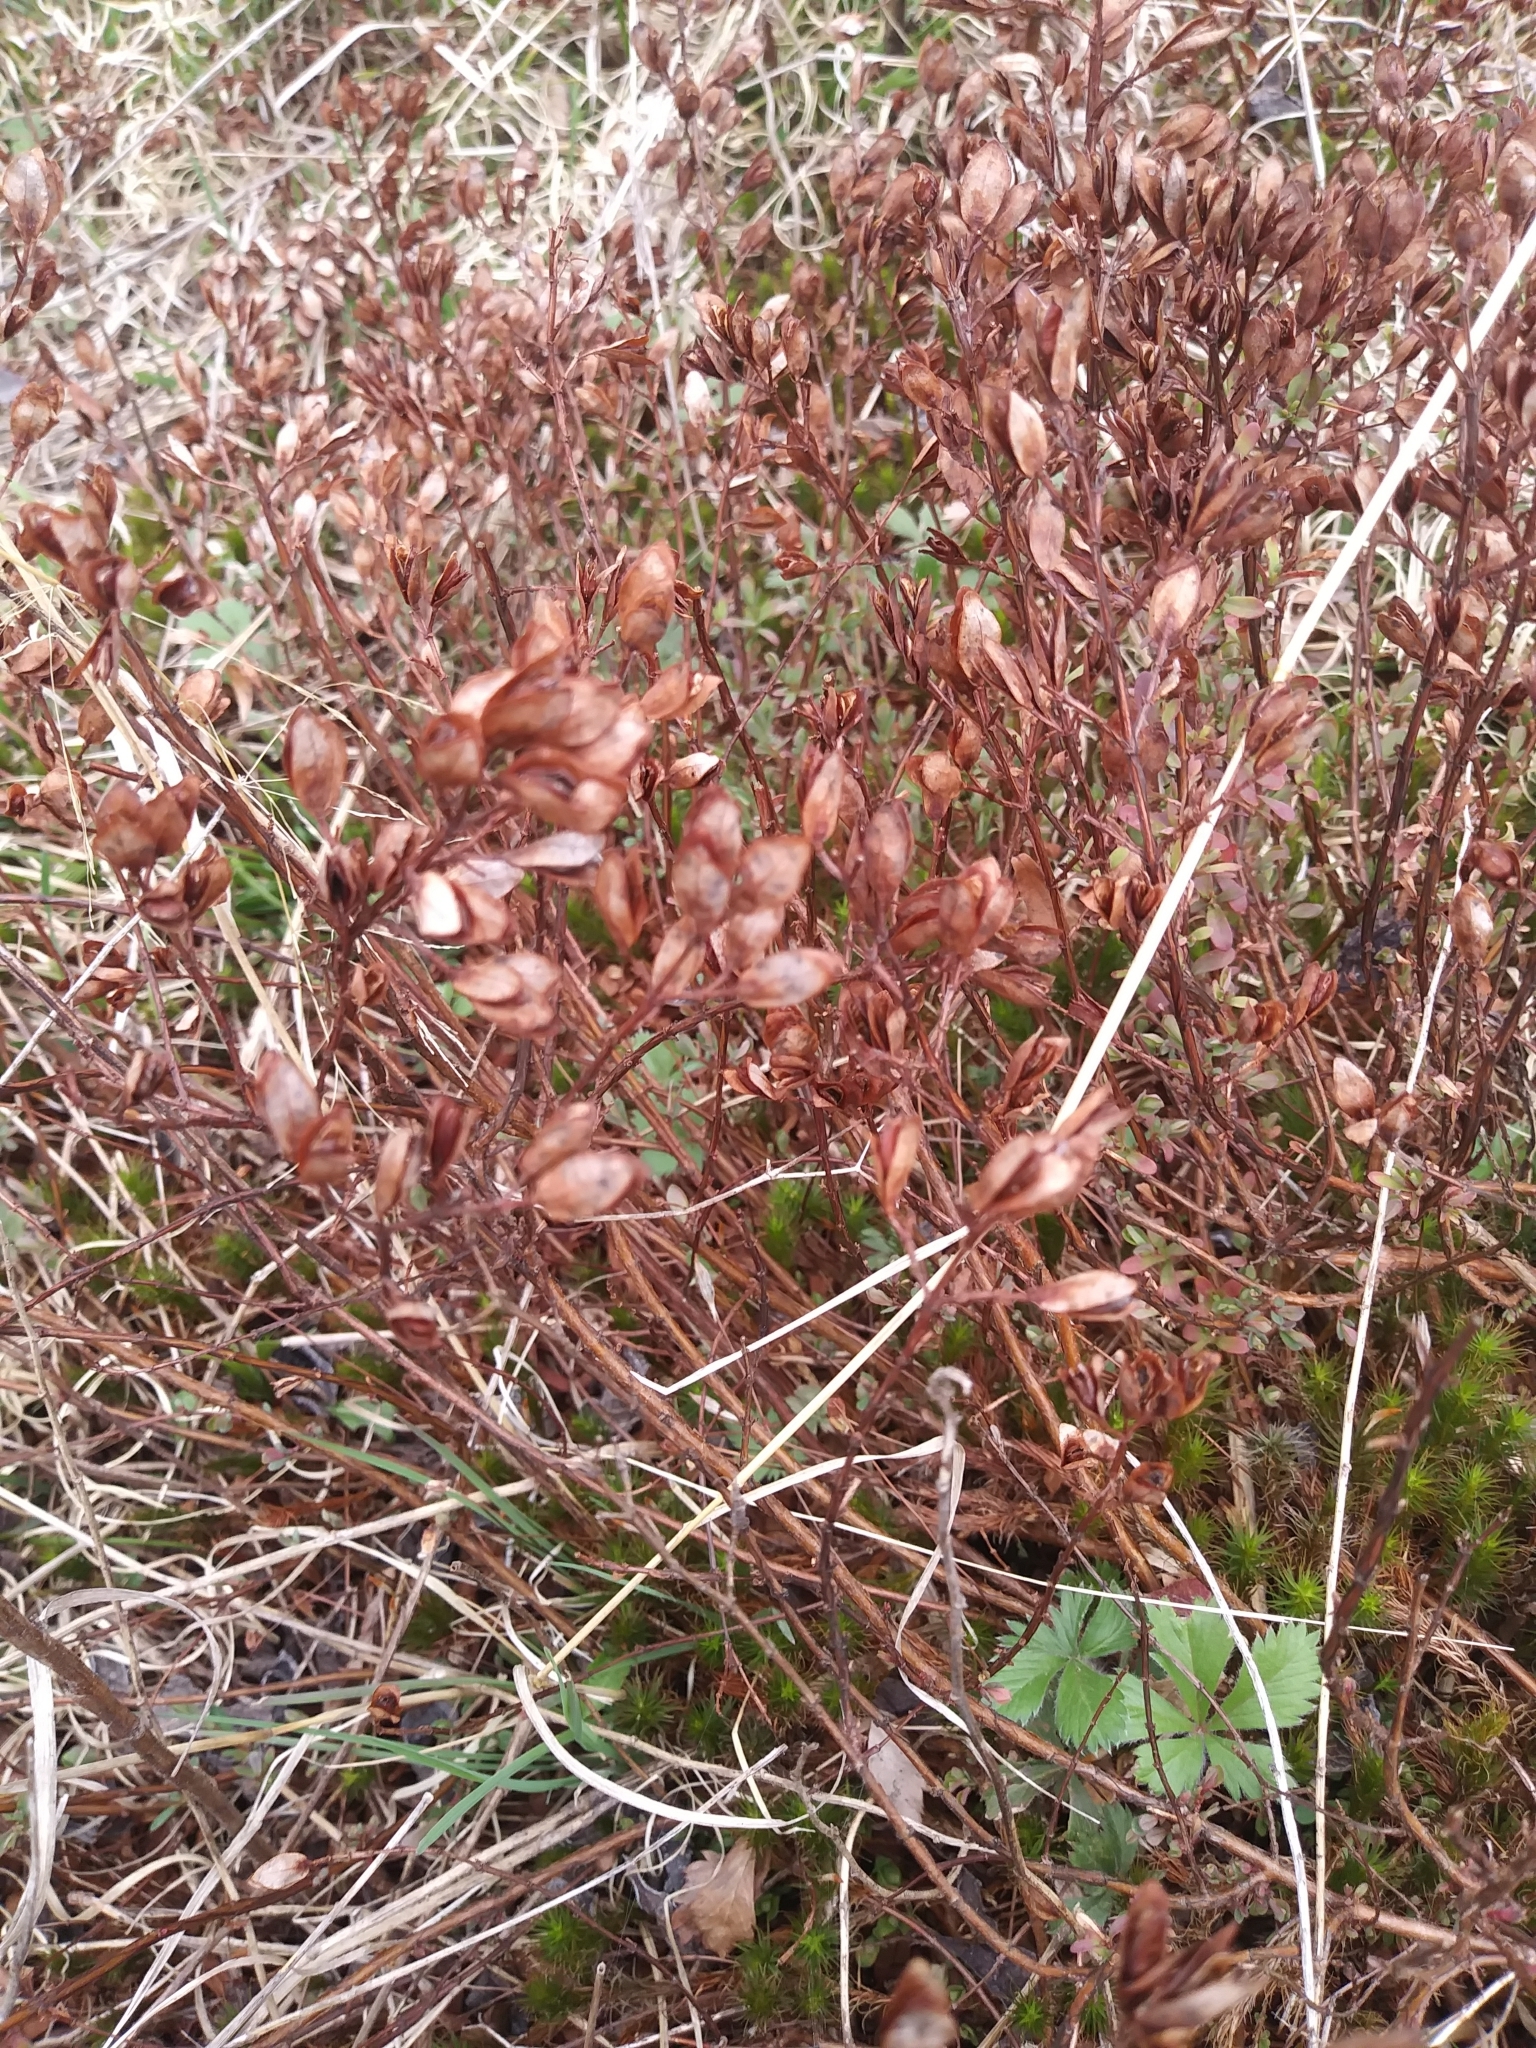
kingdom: Plantae
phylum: Tracheophyta
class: Magnoliopsida
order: Malpighiales
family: Hypericaceae
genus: Hypericum
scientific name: Hypericum hypericoides
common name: St. andrew's cross
